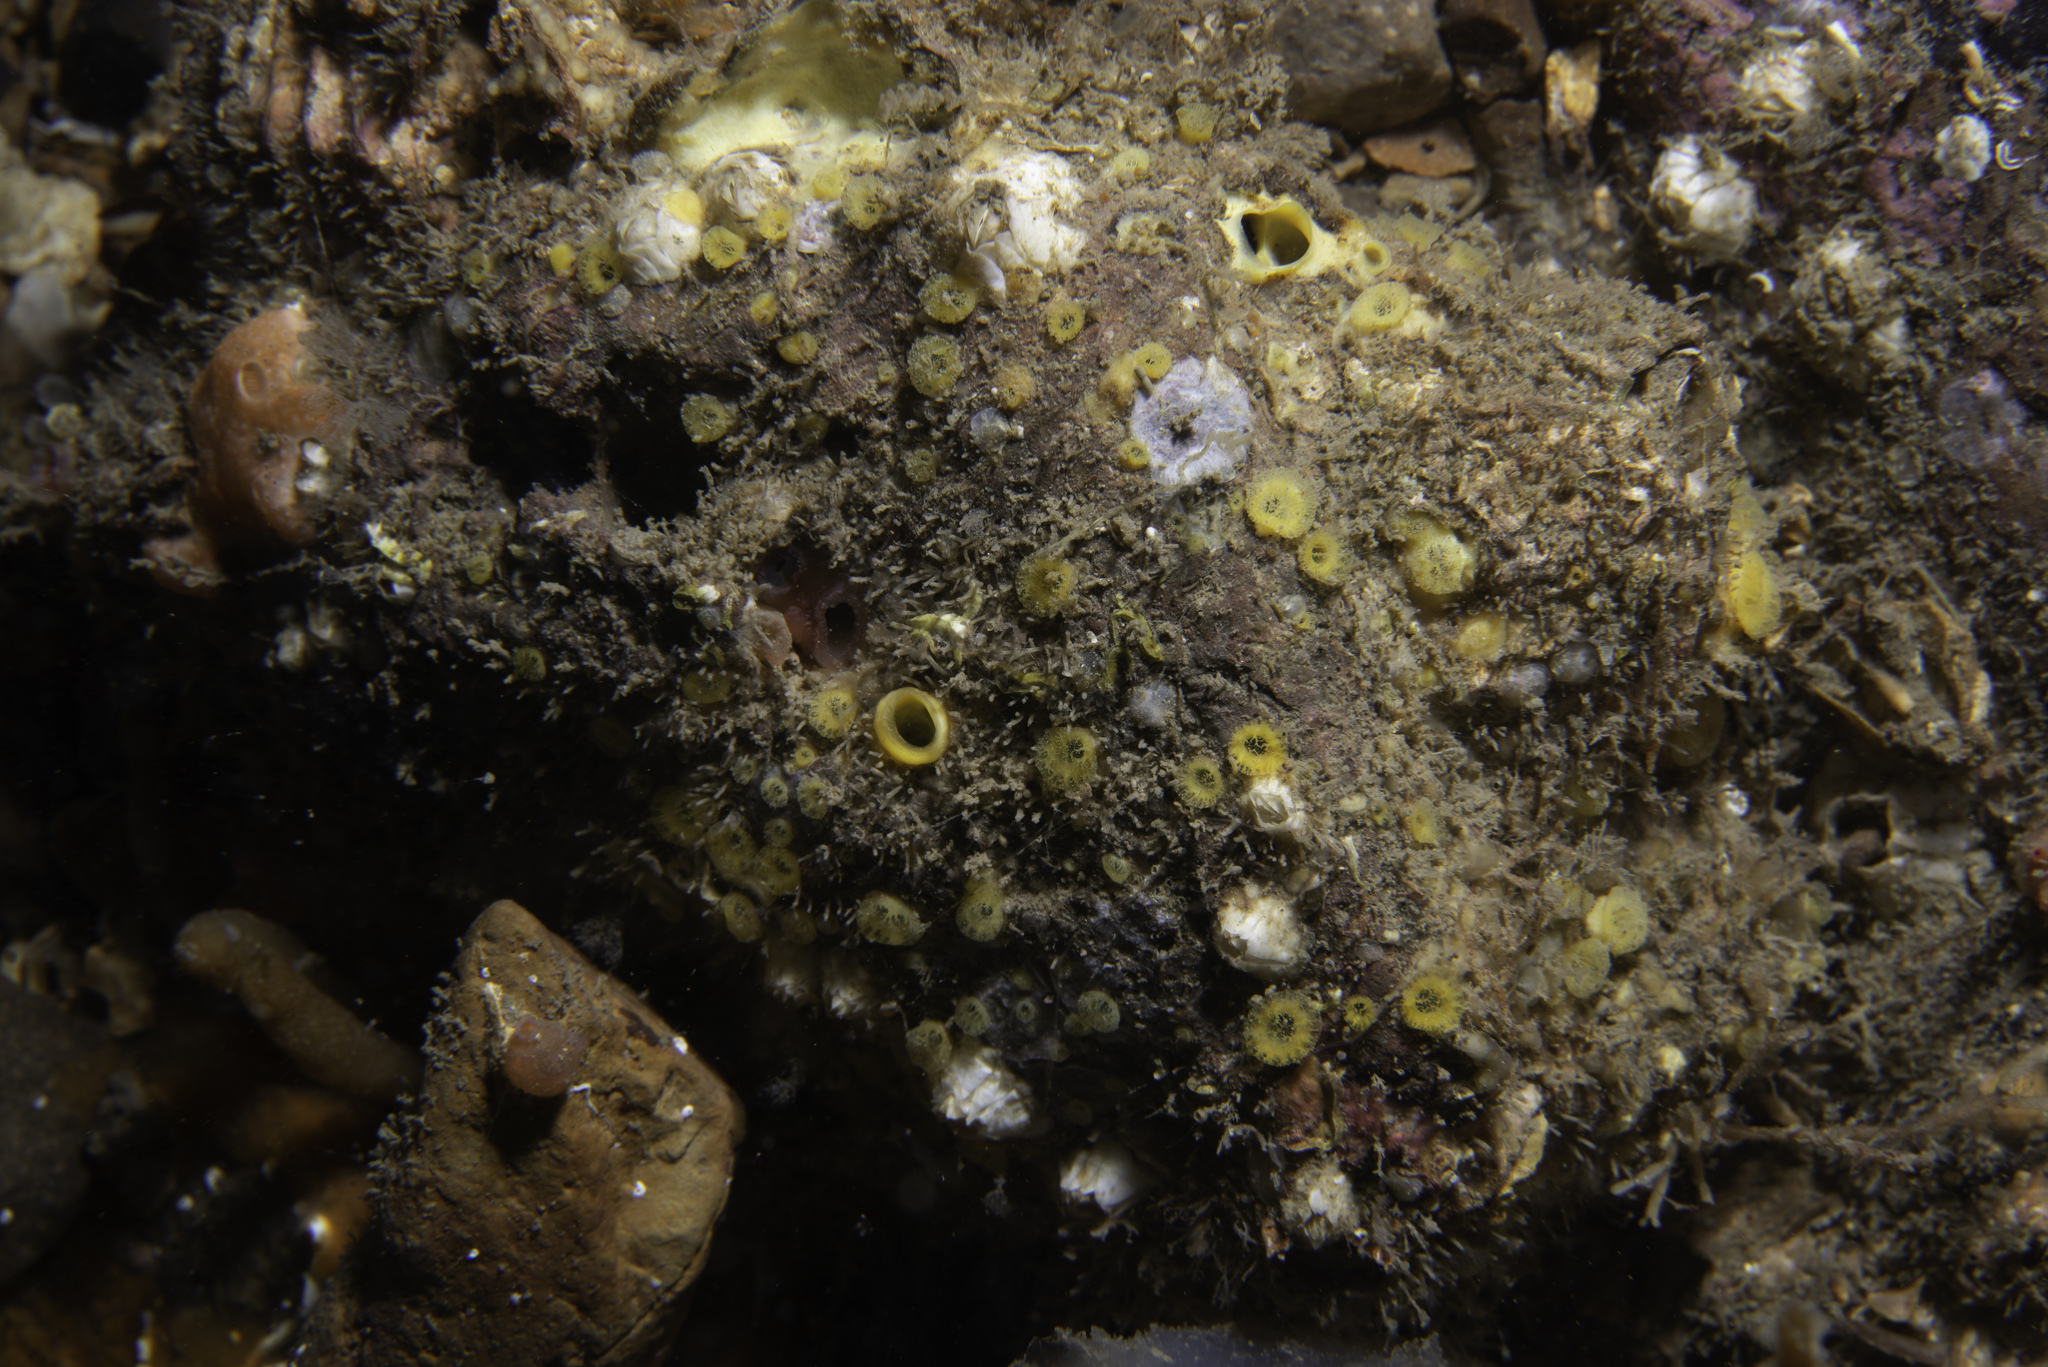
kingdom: Animalia
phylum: Porifera
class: Demospongiae
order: Clionaida
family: Clionaidae
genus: Cliona
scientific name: Cliona celata
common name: Boring sponge
